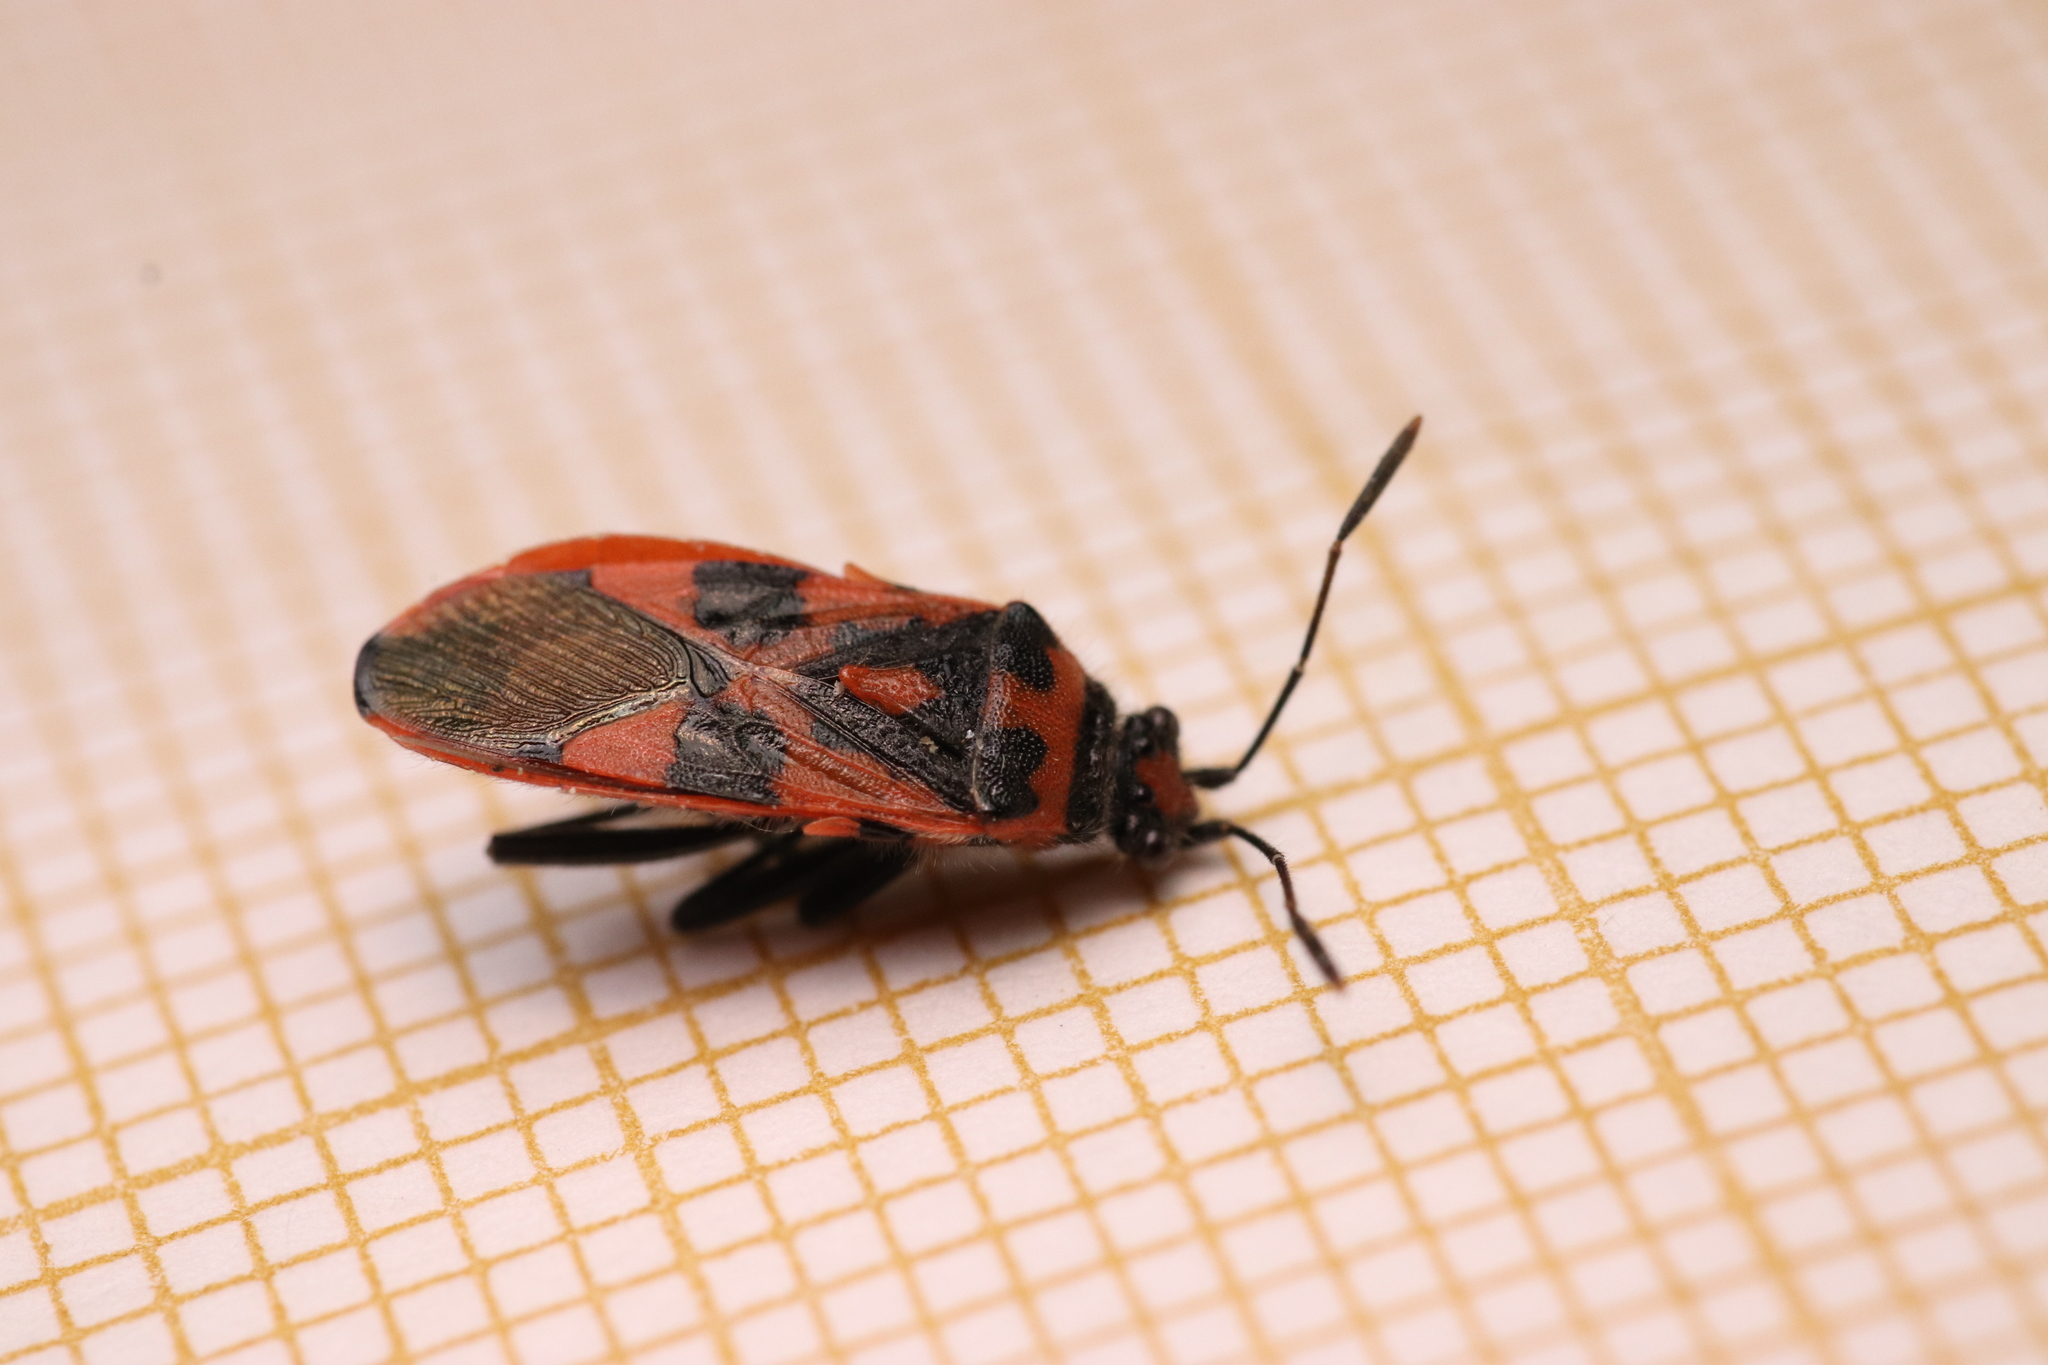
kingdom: Animalia
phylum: Arthropoda
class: Insecta
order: Hemiptera
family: Rhopalidae
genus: Corizus
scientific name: Corizus hyoscyami
